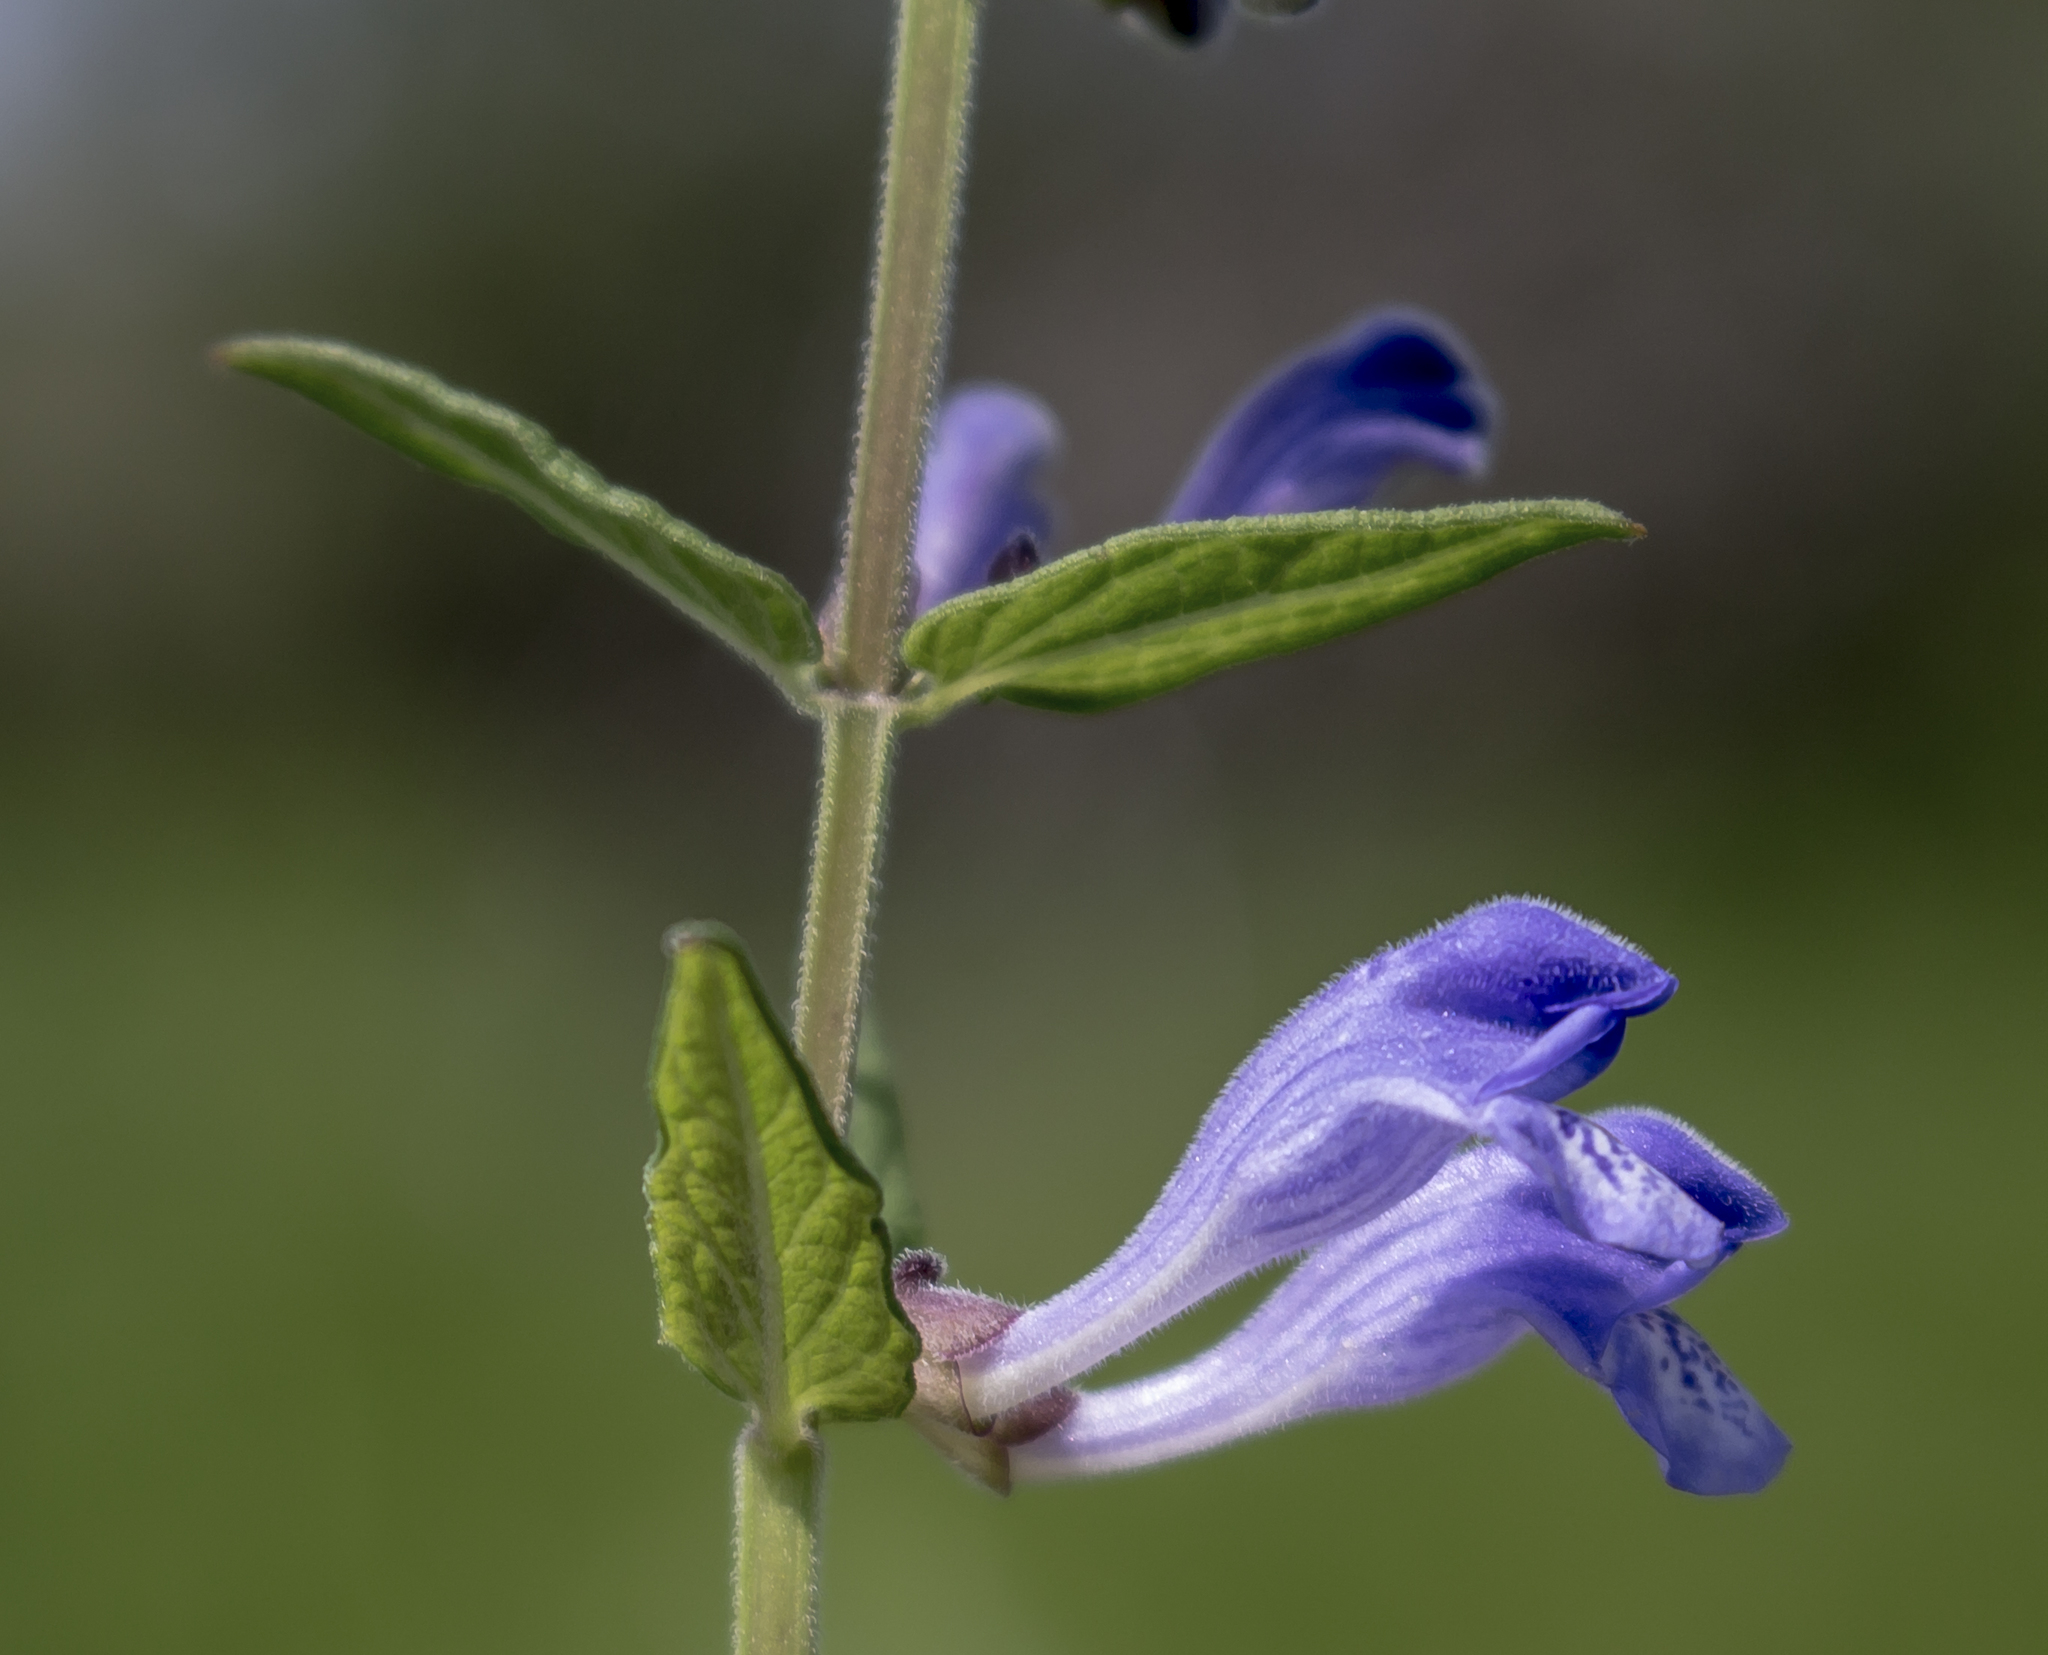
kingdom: Plantae
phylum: Tracheophyta
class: Magnoliopsida
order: Lamiales
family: Lamiaceae
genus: Scutellaria
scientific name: Scutellaria galericulata
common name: Skullcap
